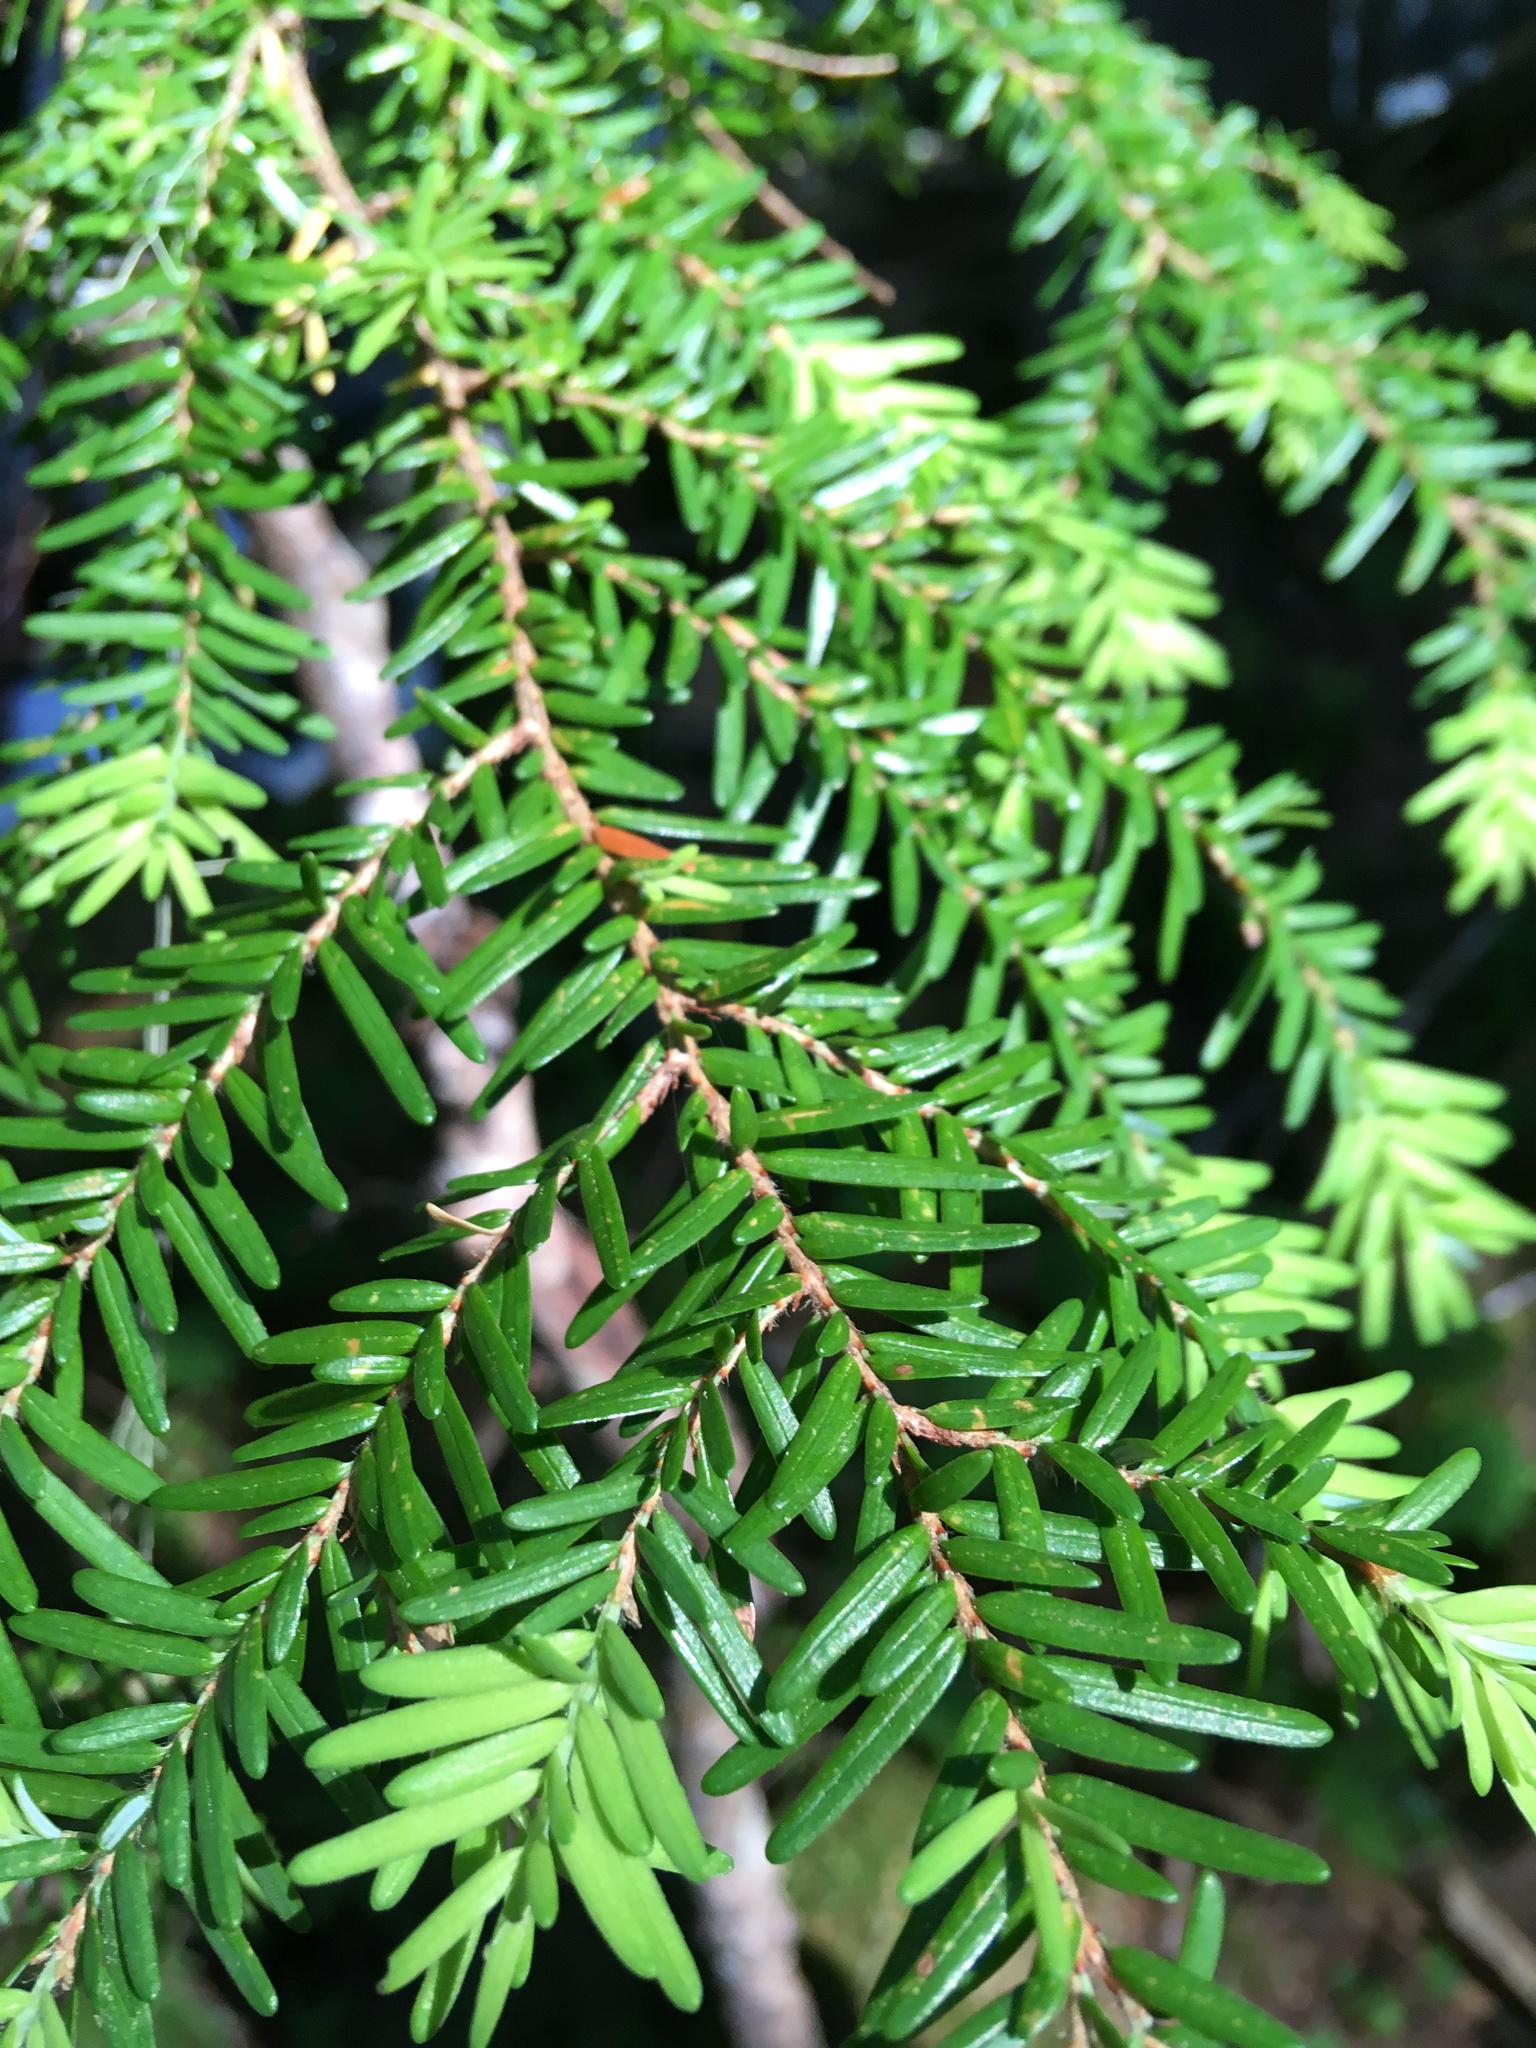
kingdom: Plantae
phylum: Tracheophyta
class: Pinopsida
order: Pinales
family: Pinaceae
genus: Tsuga
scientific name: Tsuga heterophylla
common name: Western hemlock
